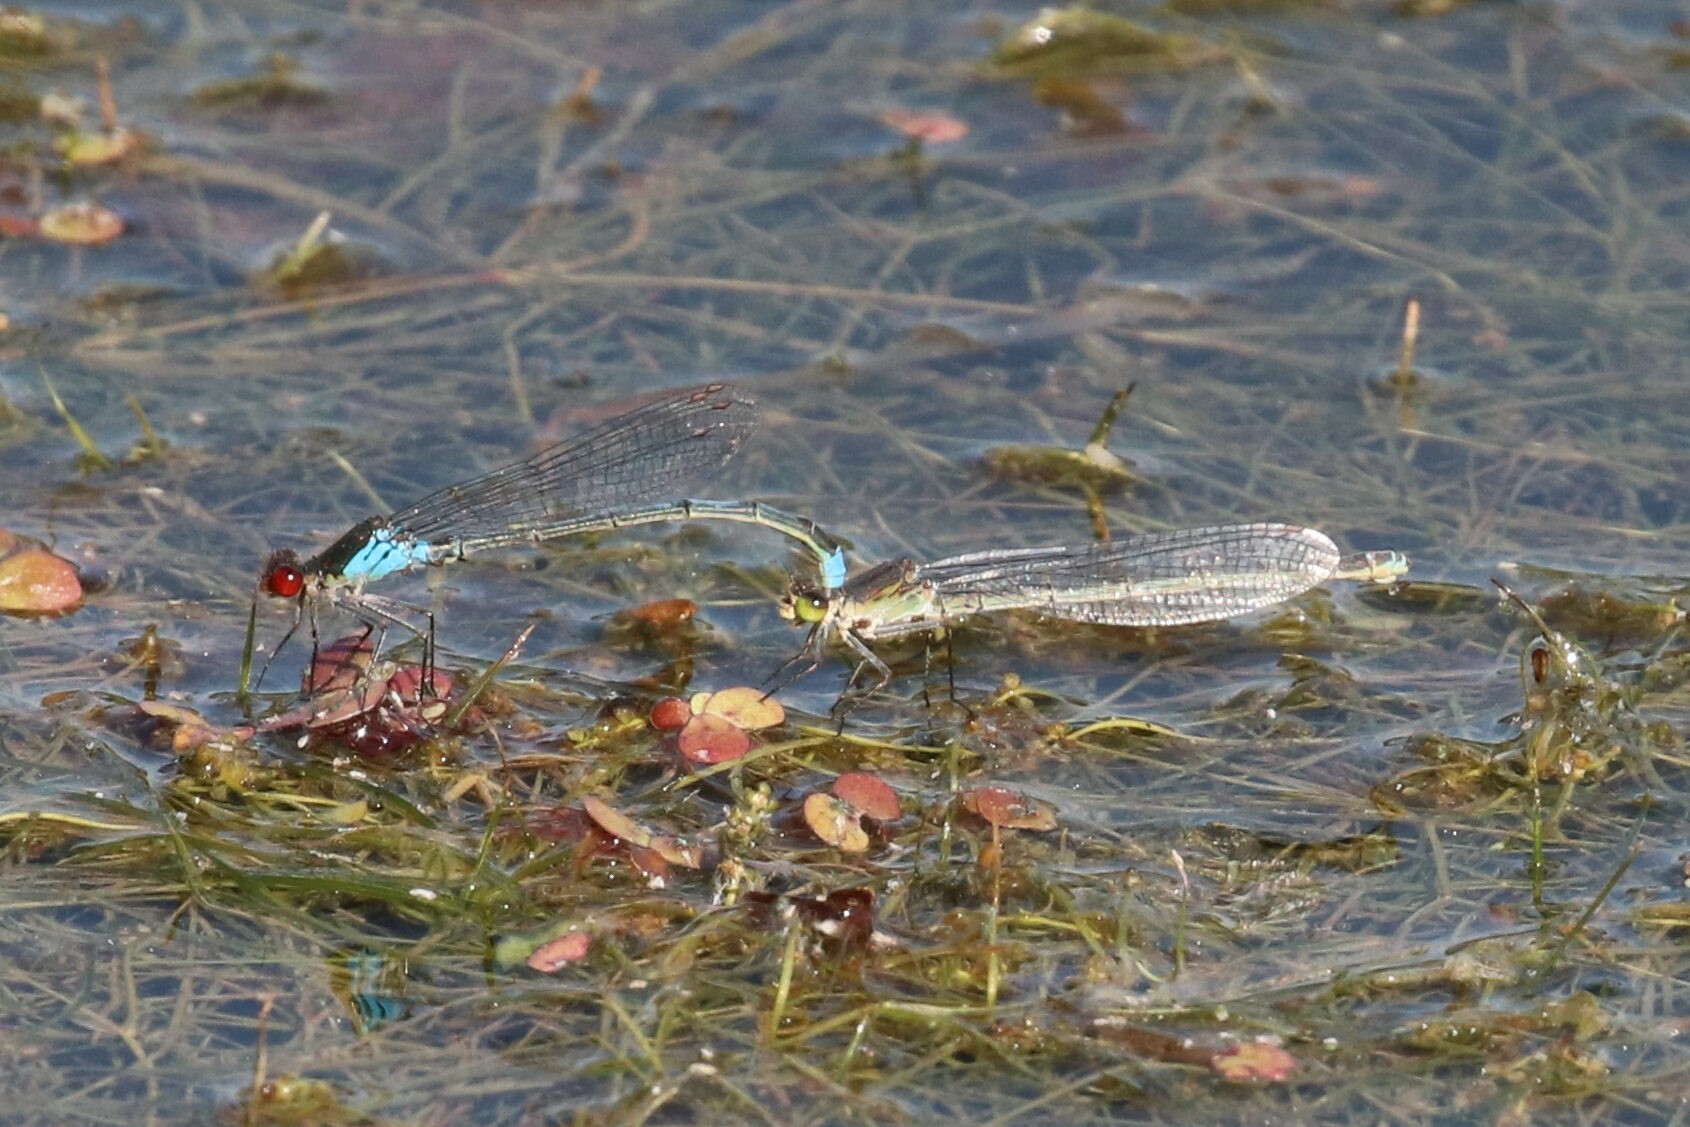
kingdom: Animalia
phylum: Arthropoda
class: Insecta
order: Odonata
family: Coenagrionidae
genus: Erythromma
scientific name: Erythromma najas
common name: Red-eyed damselfly
